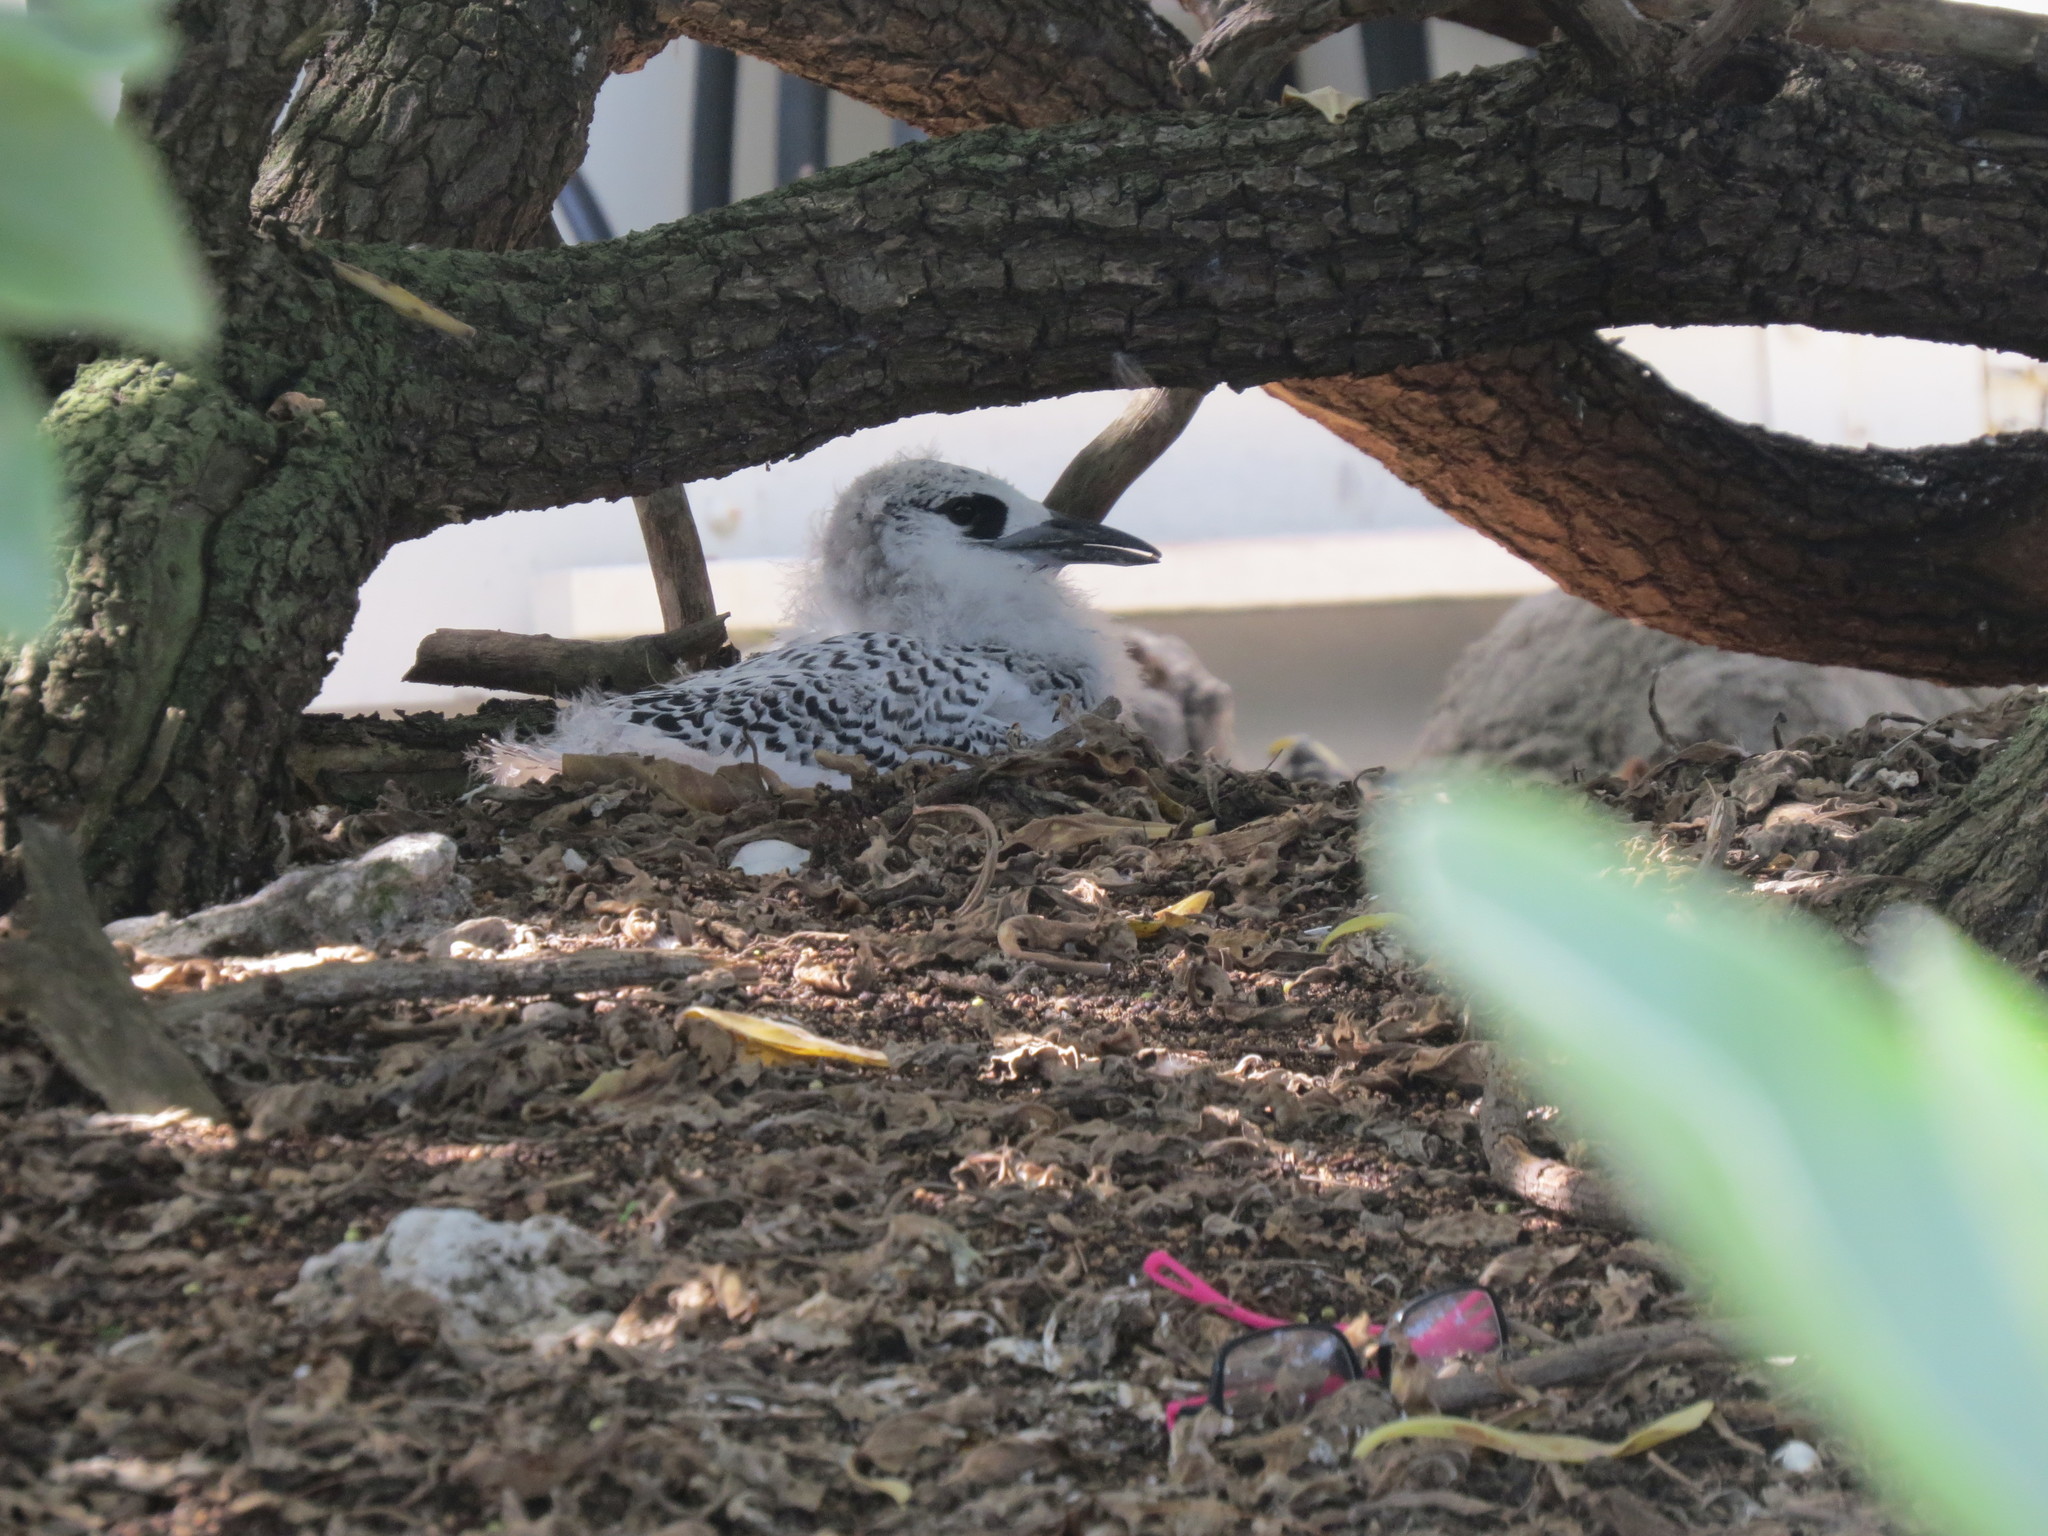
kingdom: Animalia
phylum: Chordata
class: Aves
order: Phaethontiformes
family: Phaethontidae
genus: Phaethon
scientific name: Phaethon rubricauda
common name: Red-tailed tropicbird
